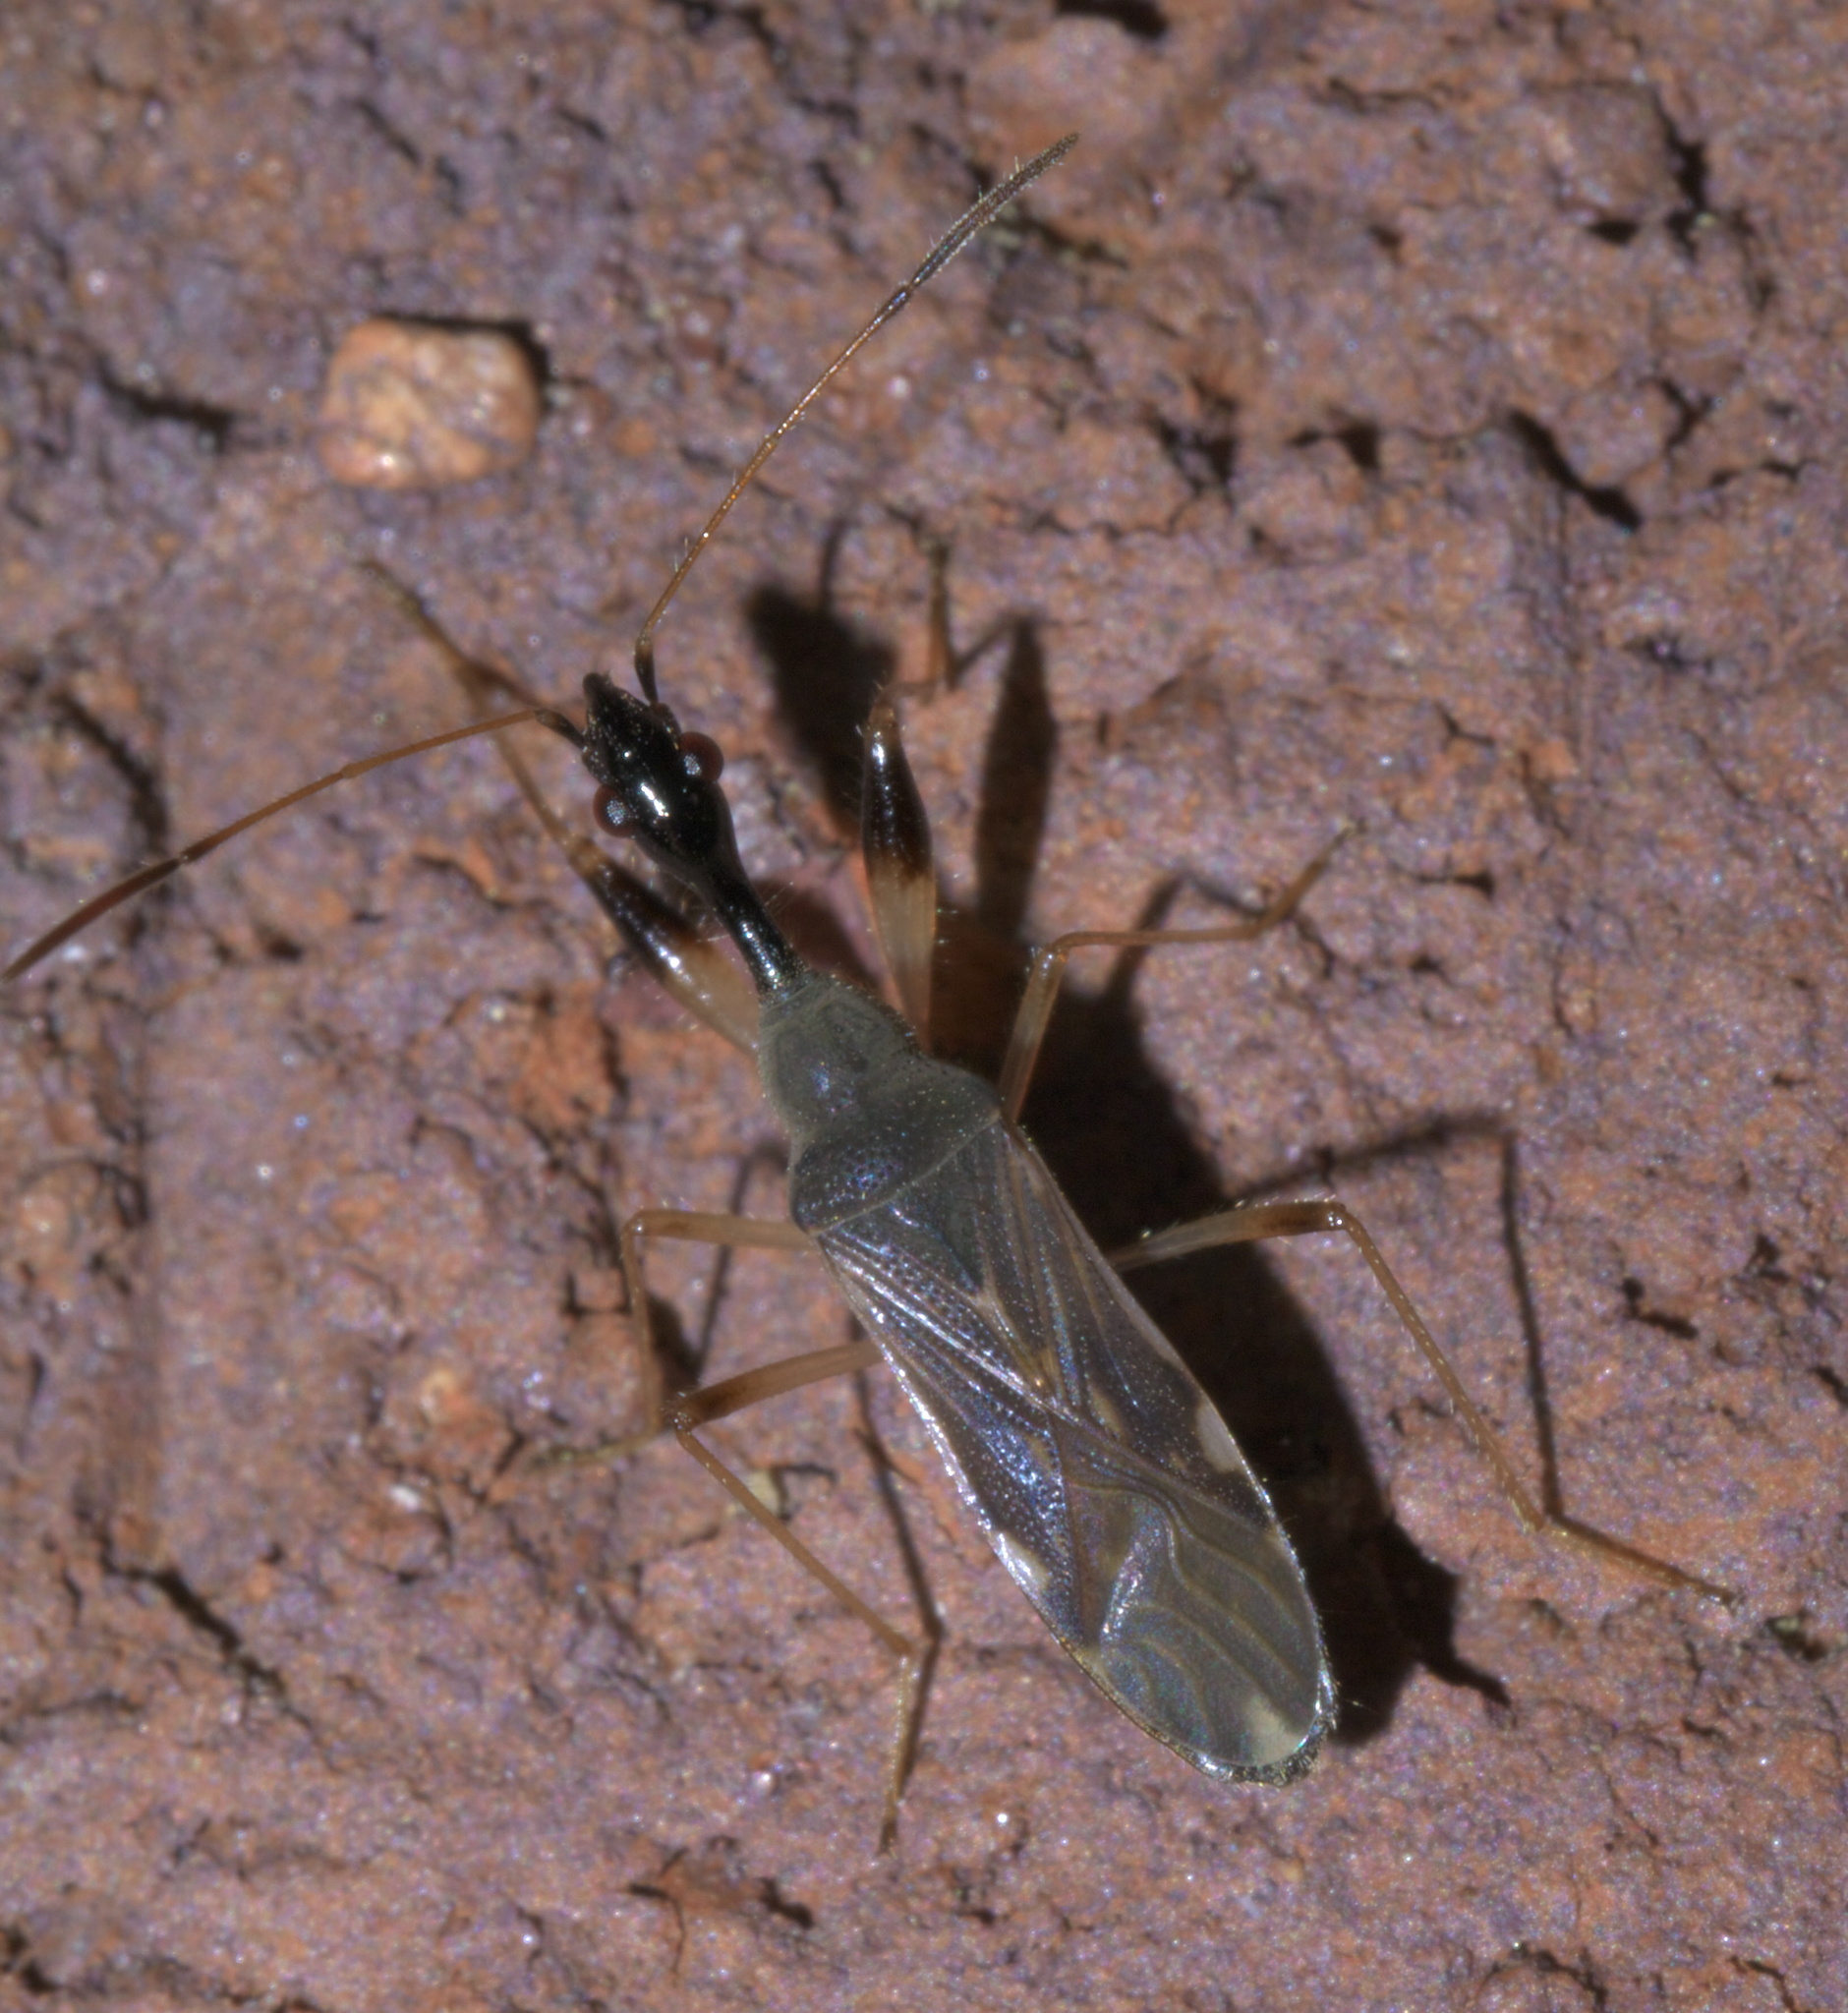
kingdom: Animalia
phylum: Arthropoda
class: Insecta
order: Hemiptera
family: Rhyparochromidae
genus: Myodocha
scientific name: Myodocha serripes
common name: Long-necked seed bug
